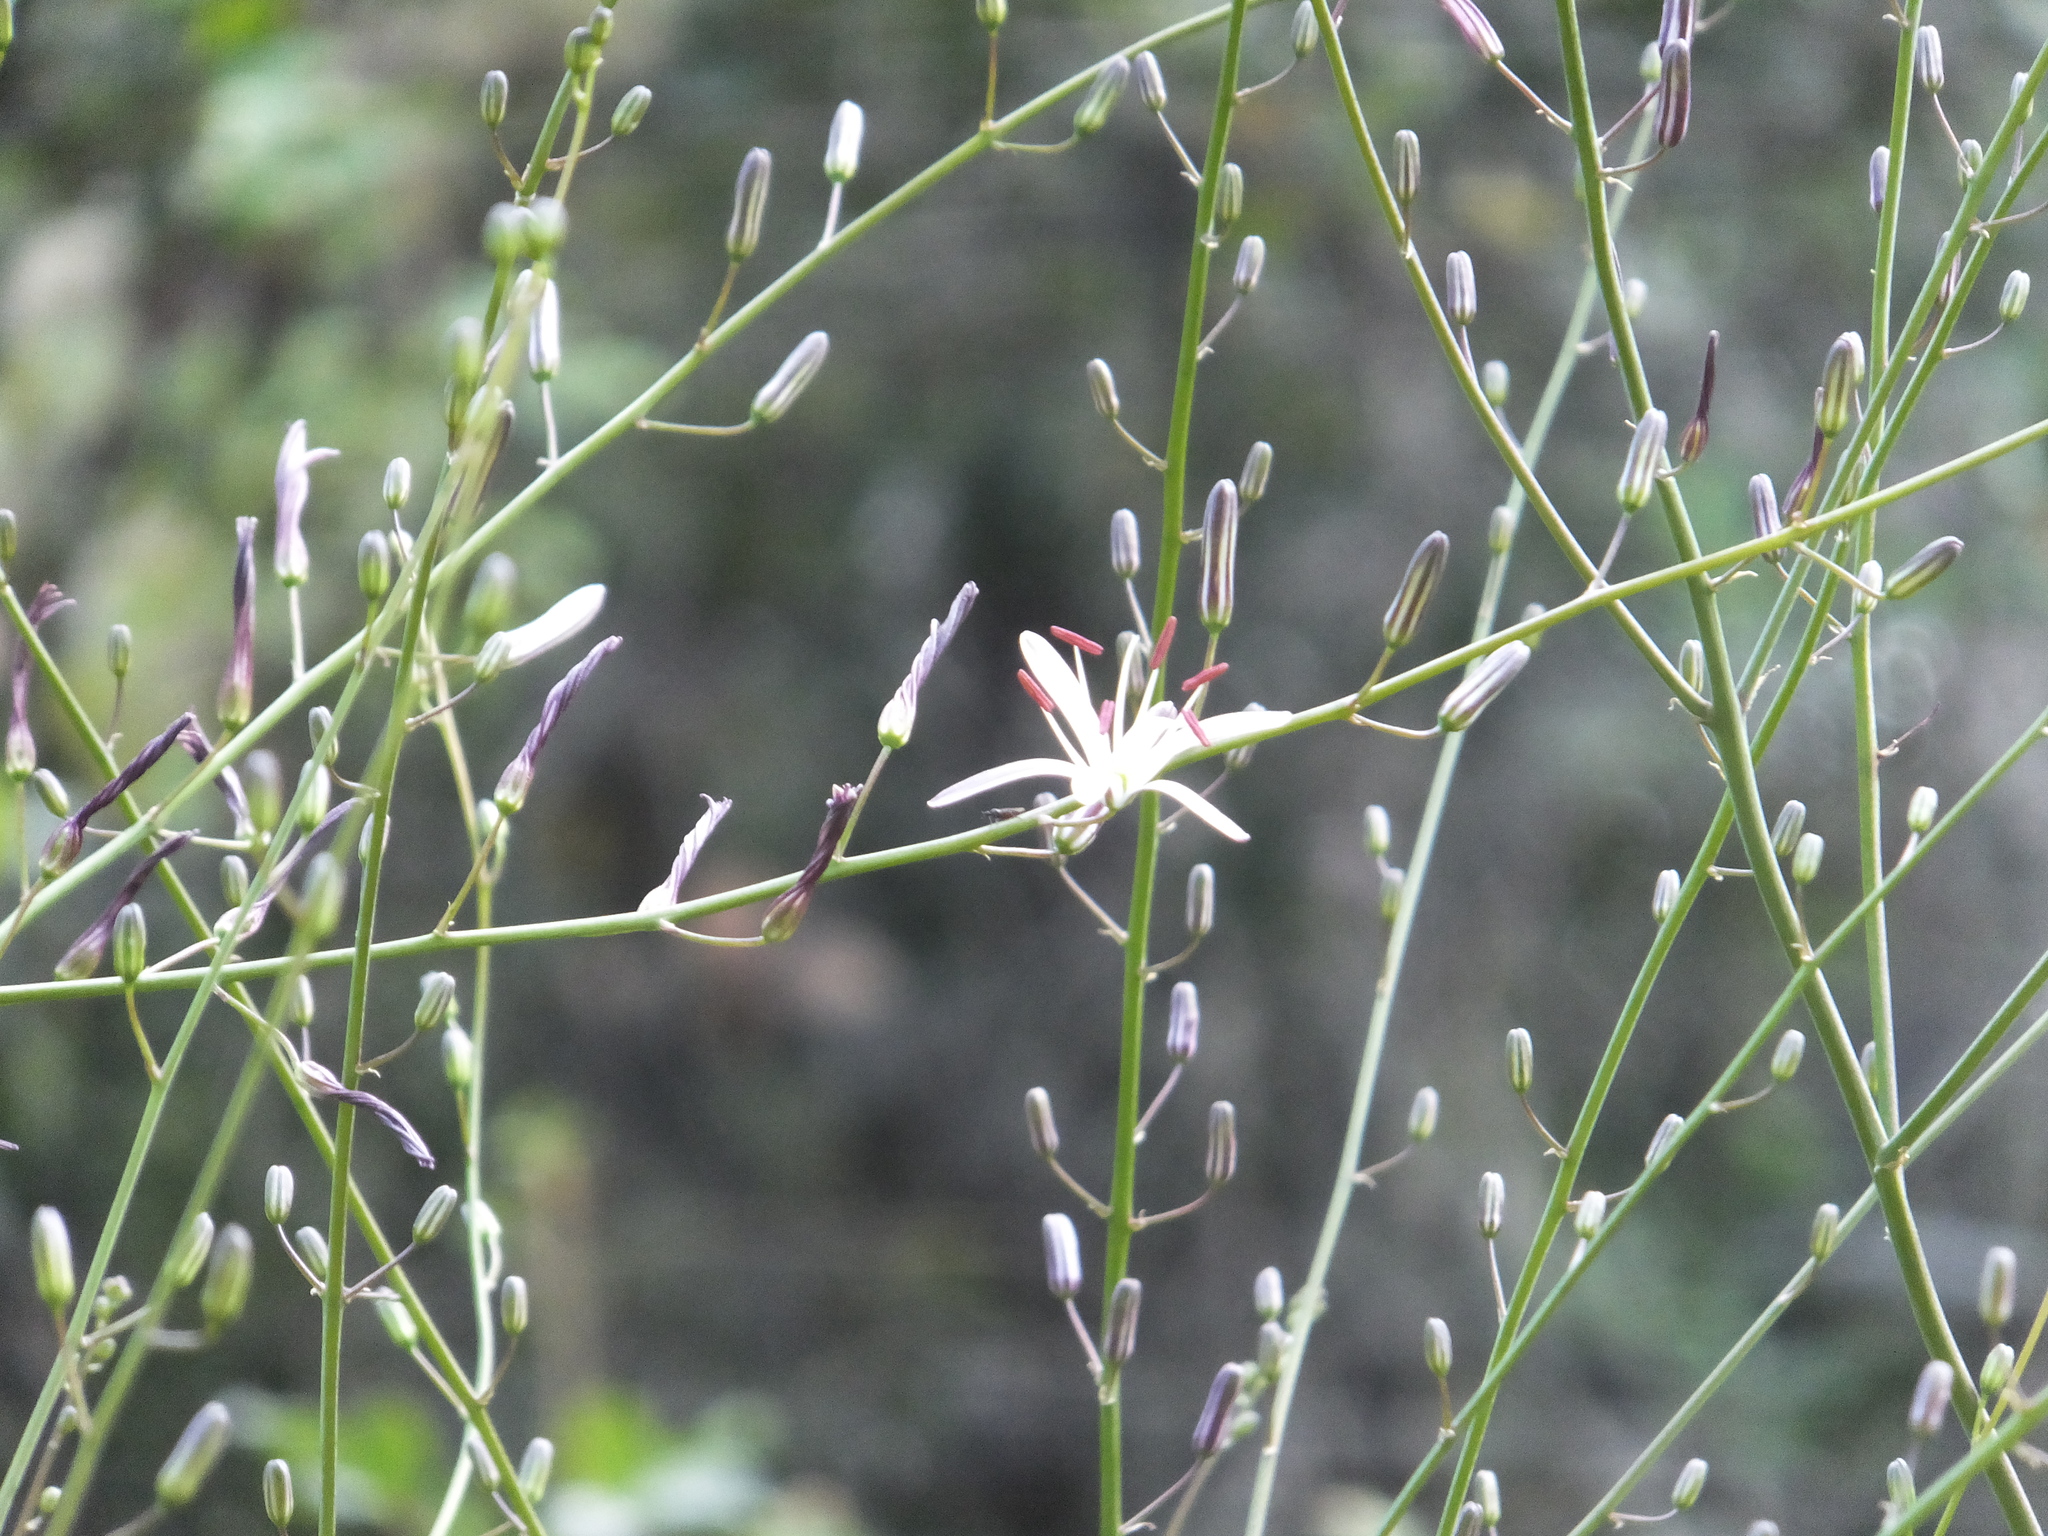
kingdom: Plantae
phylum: Tracheophyta
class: Liliopsida
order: Asparagales
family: Asparagaceae
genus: Chlorogalum
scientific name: Chlorogalum pomeridianum
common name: Amole
